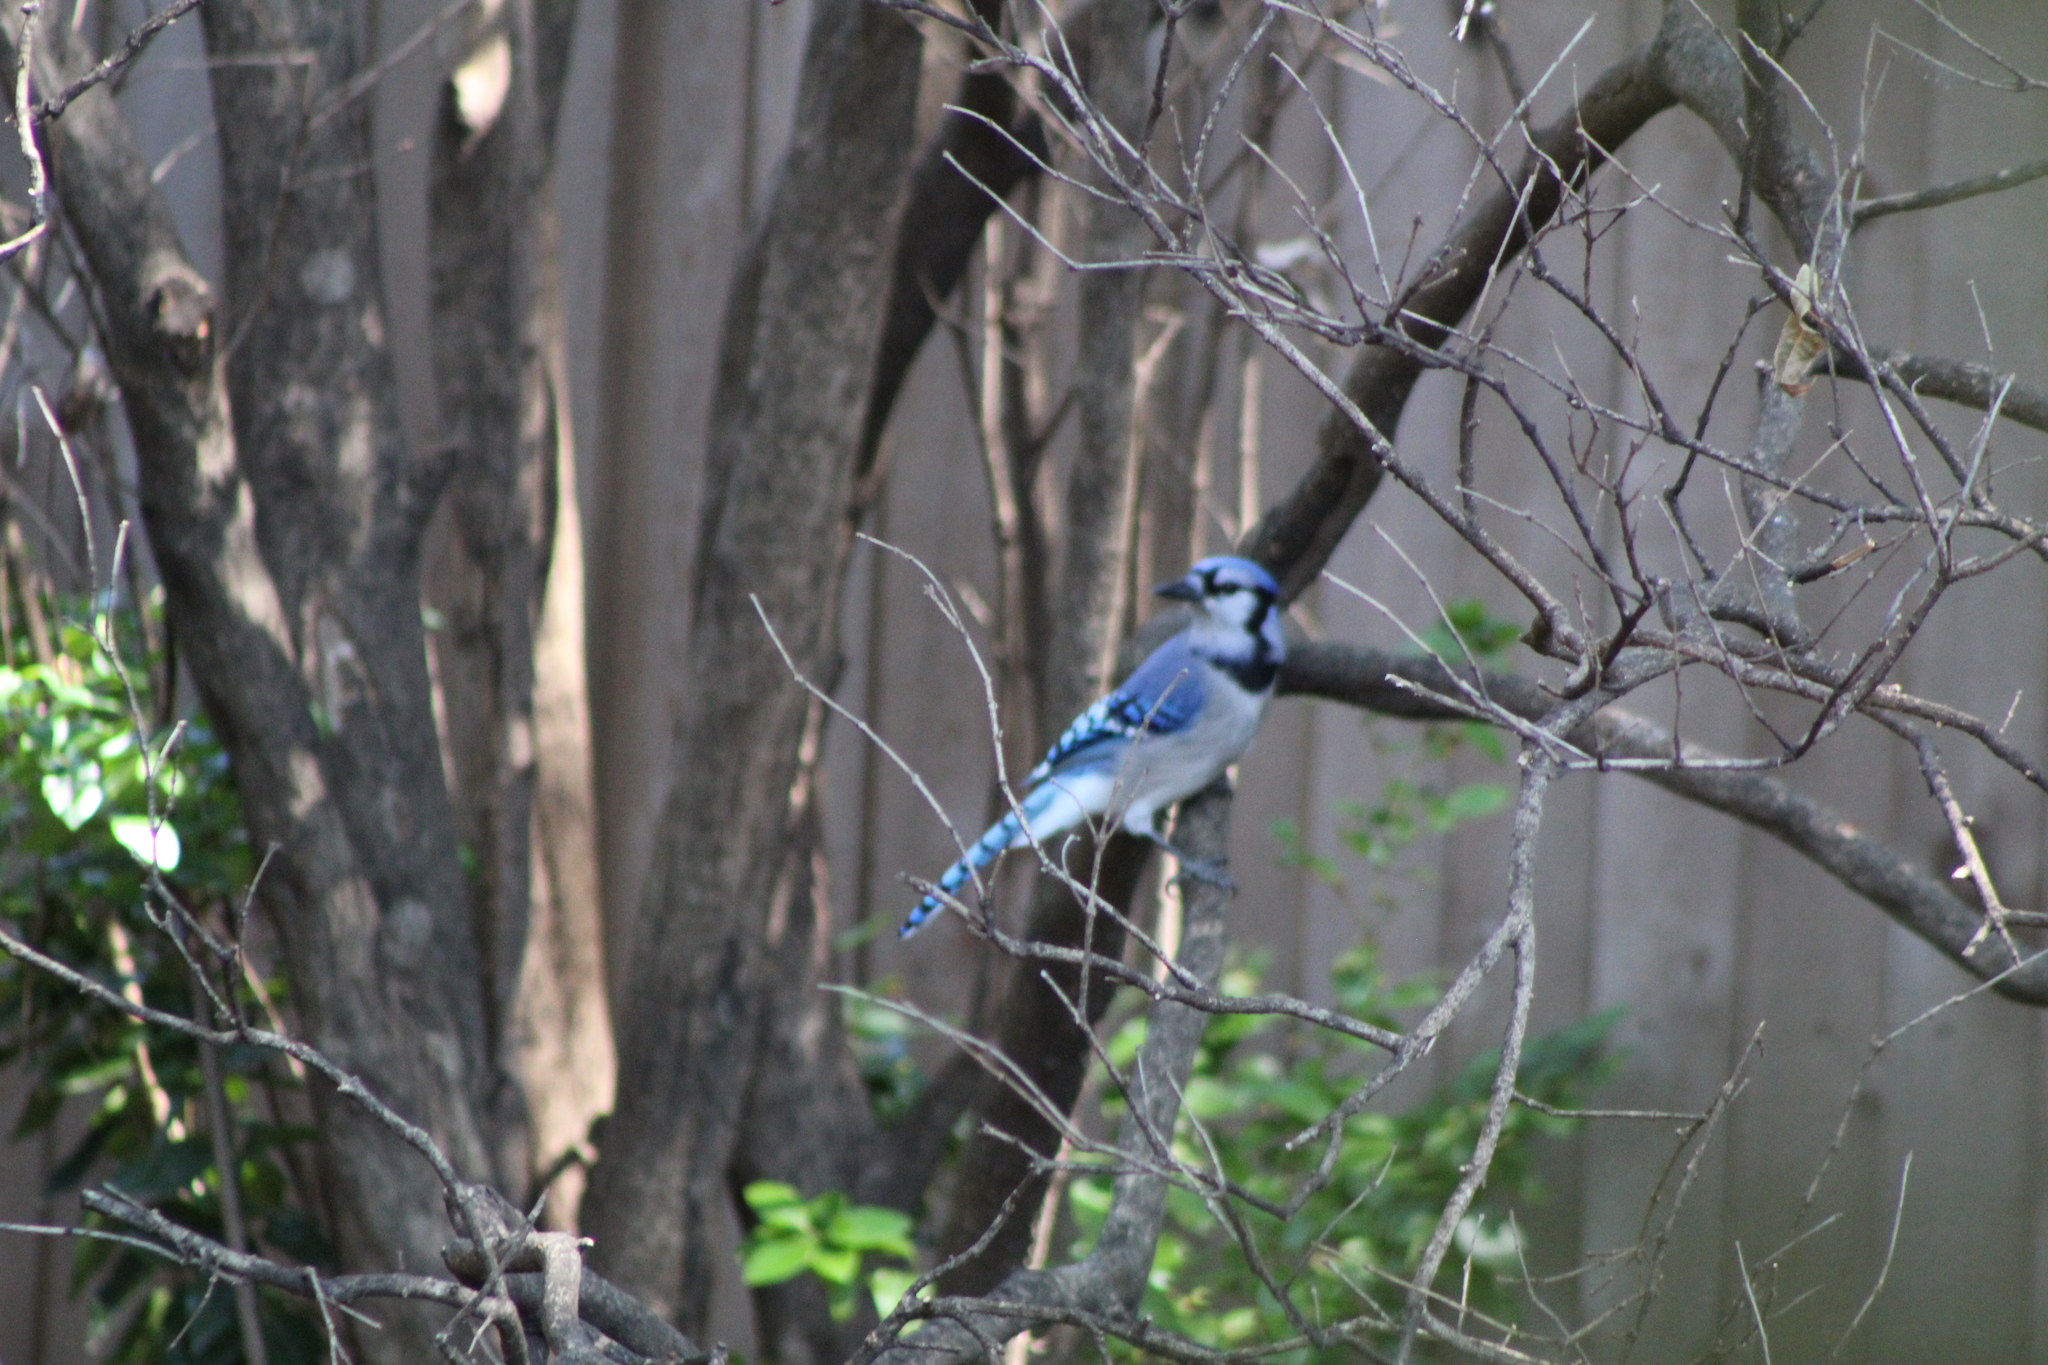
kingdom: Animalia
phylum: Chordata
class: Aves
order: Passeriformes
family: Corvidae
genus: Cyanocitta
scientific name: Cyanocitta cristata
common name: Blue jay
